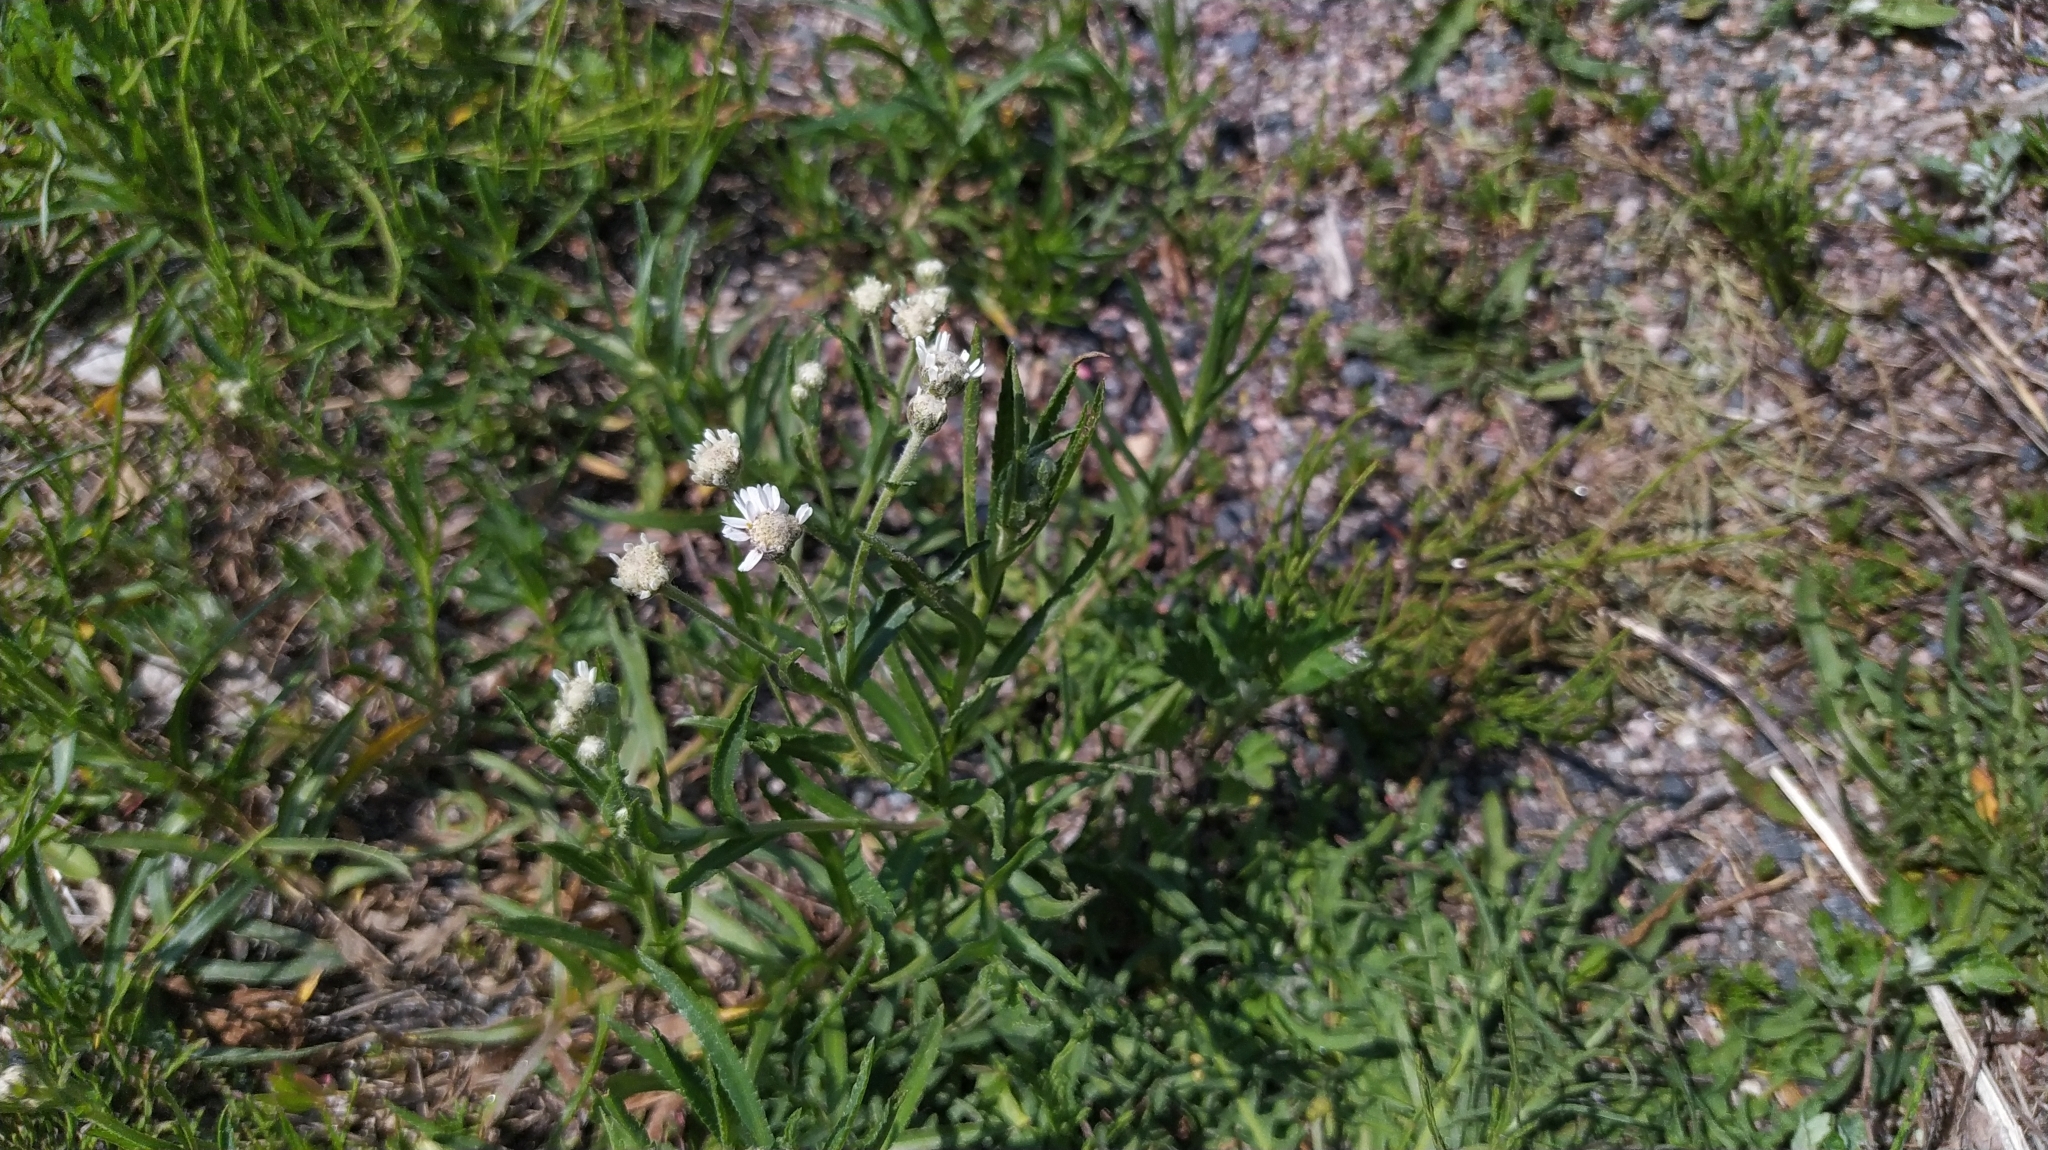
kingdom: Plantae
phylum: Tracheophyta
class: Magnoliopsida
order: Asterales
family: Asteraceae
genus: Achillea
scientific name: Achillea ptarmica
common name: Sneezeweed
